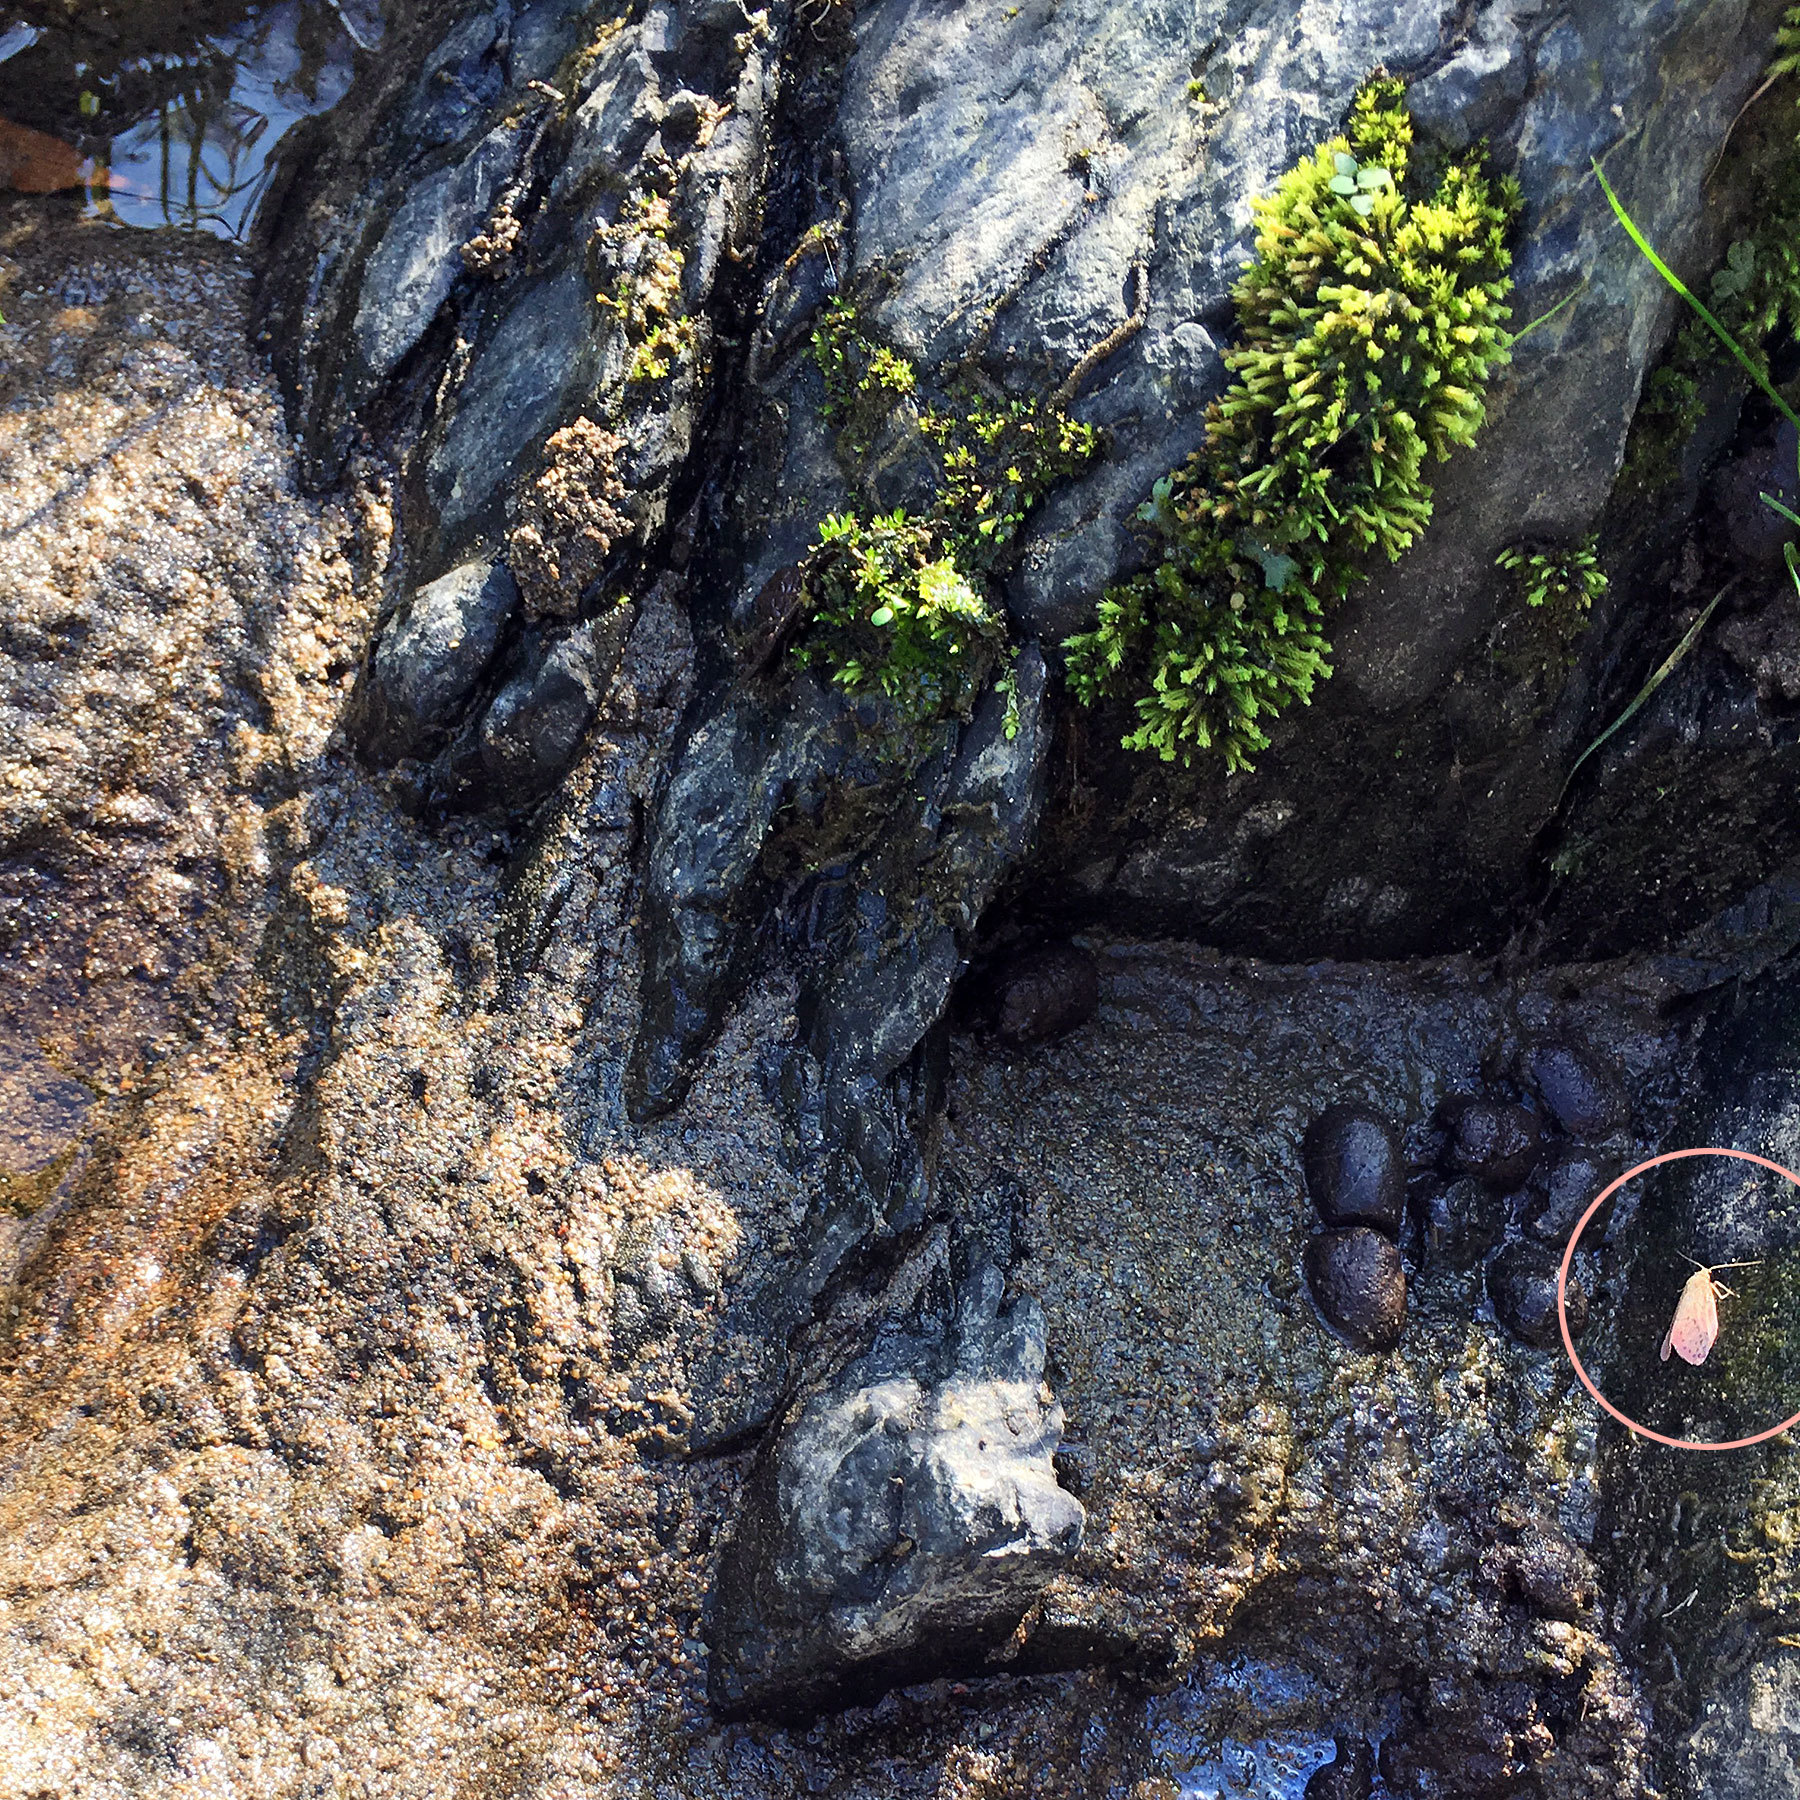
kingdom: Animalia
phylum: Arthropoda
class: Insecta
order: Lepidoptera
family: Erebidae
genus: Miltochrista
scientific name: Miltochrista miniata
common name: Rosy footman
